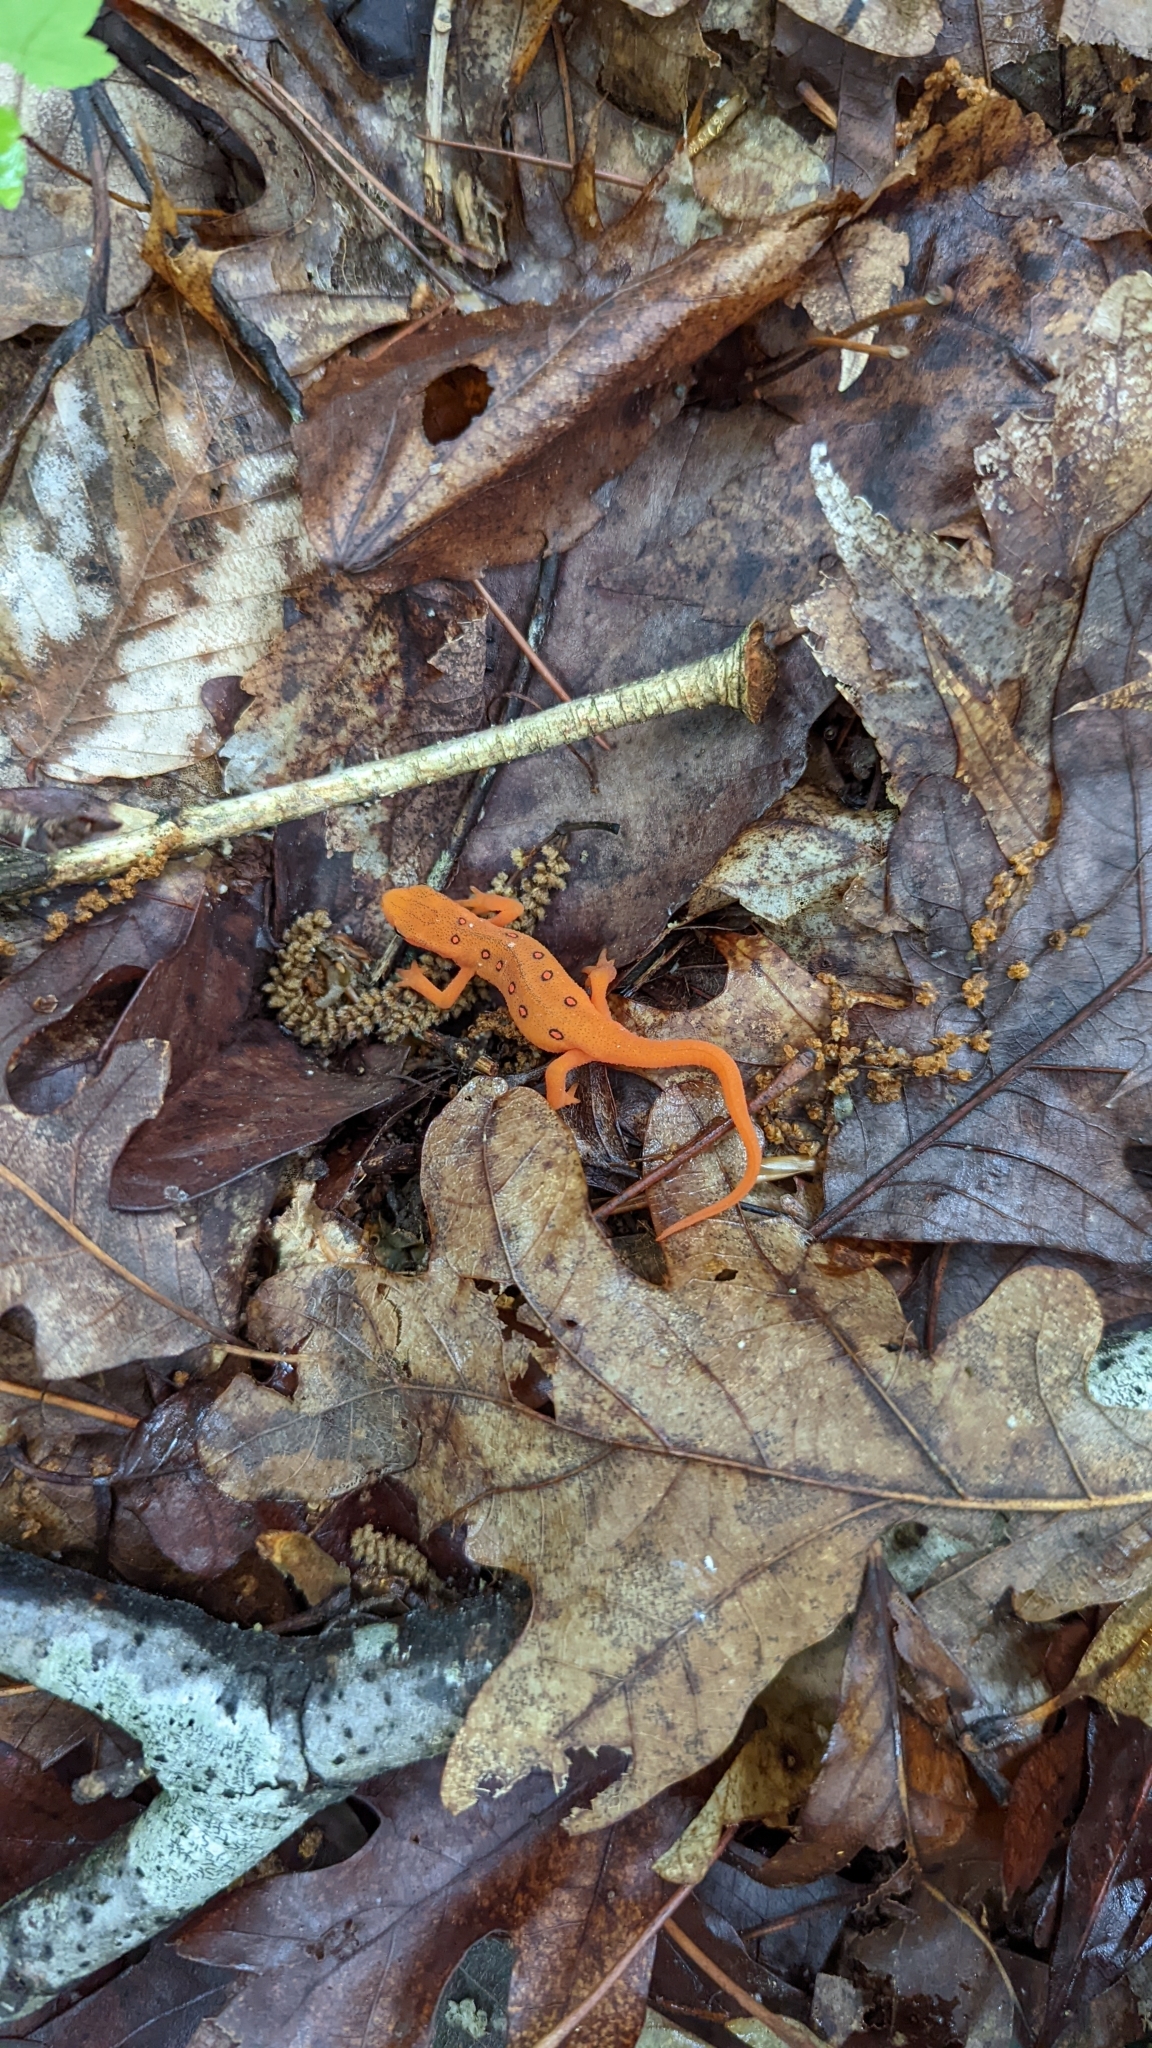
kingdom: Animalia
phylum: Chordata
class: Amphibia
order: Caudata
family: Salamandridae
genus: Notophthalmus
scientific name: Notophthalmus viridescens
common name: Eastern newt
